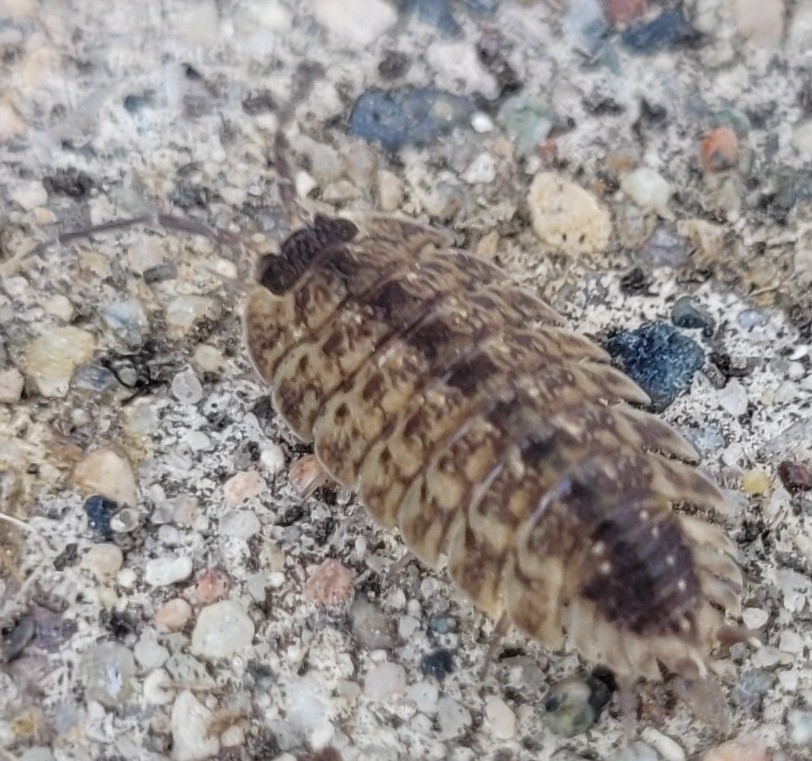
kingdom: Animalia
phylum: Arthropoda
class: Malacostraca
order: Isopoda
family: Porcellionidae
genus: Porcellio
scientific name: Porcellio spinicornis
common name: Painted woodlouse
